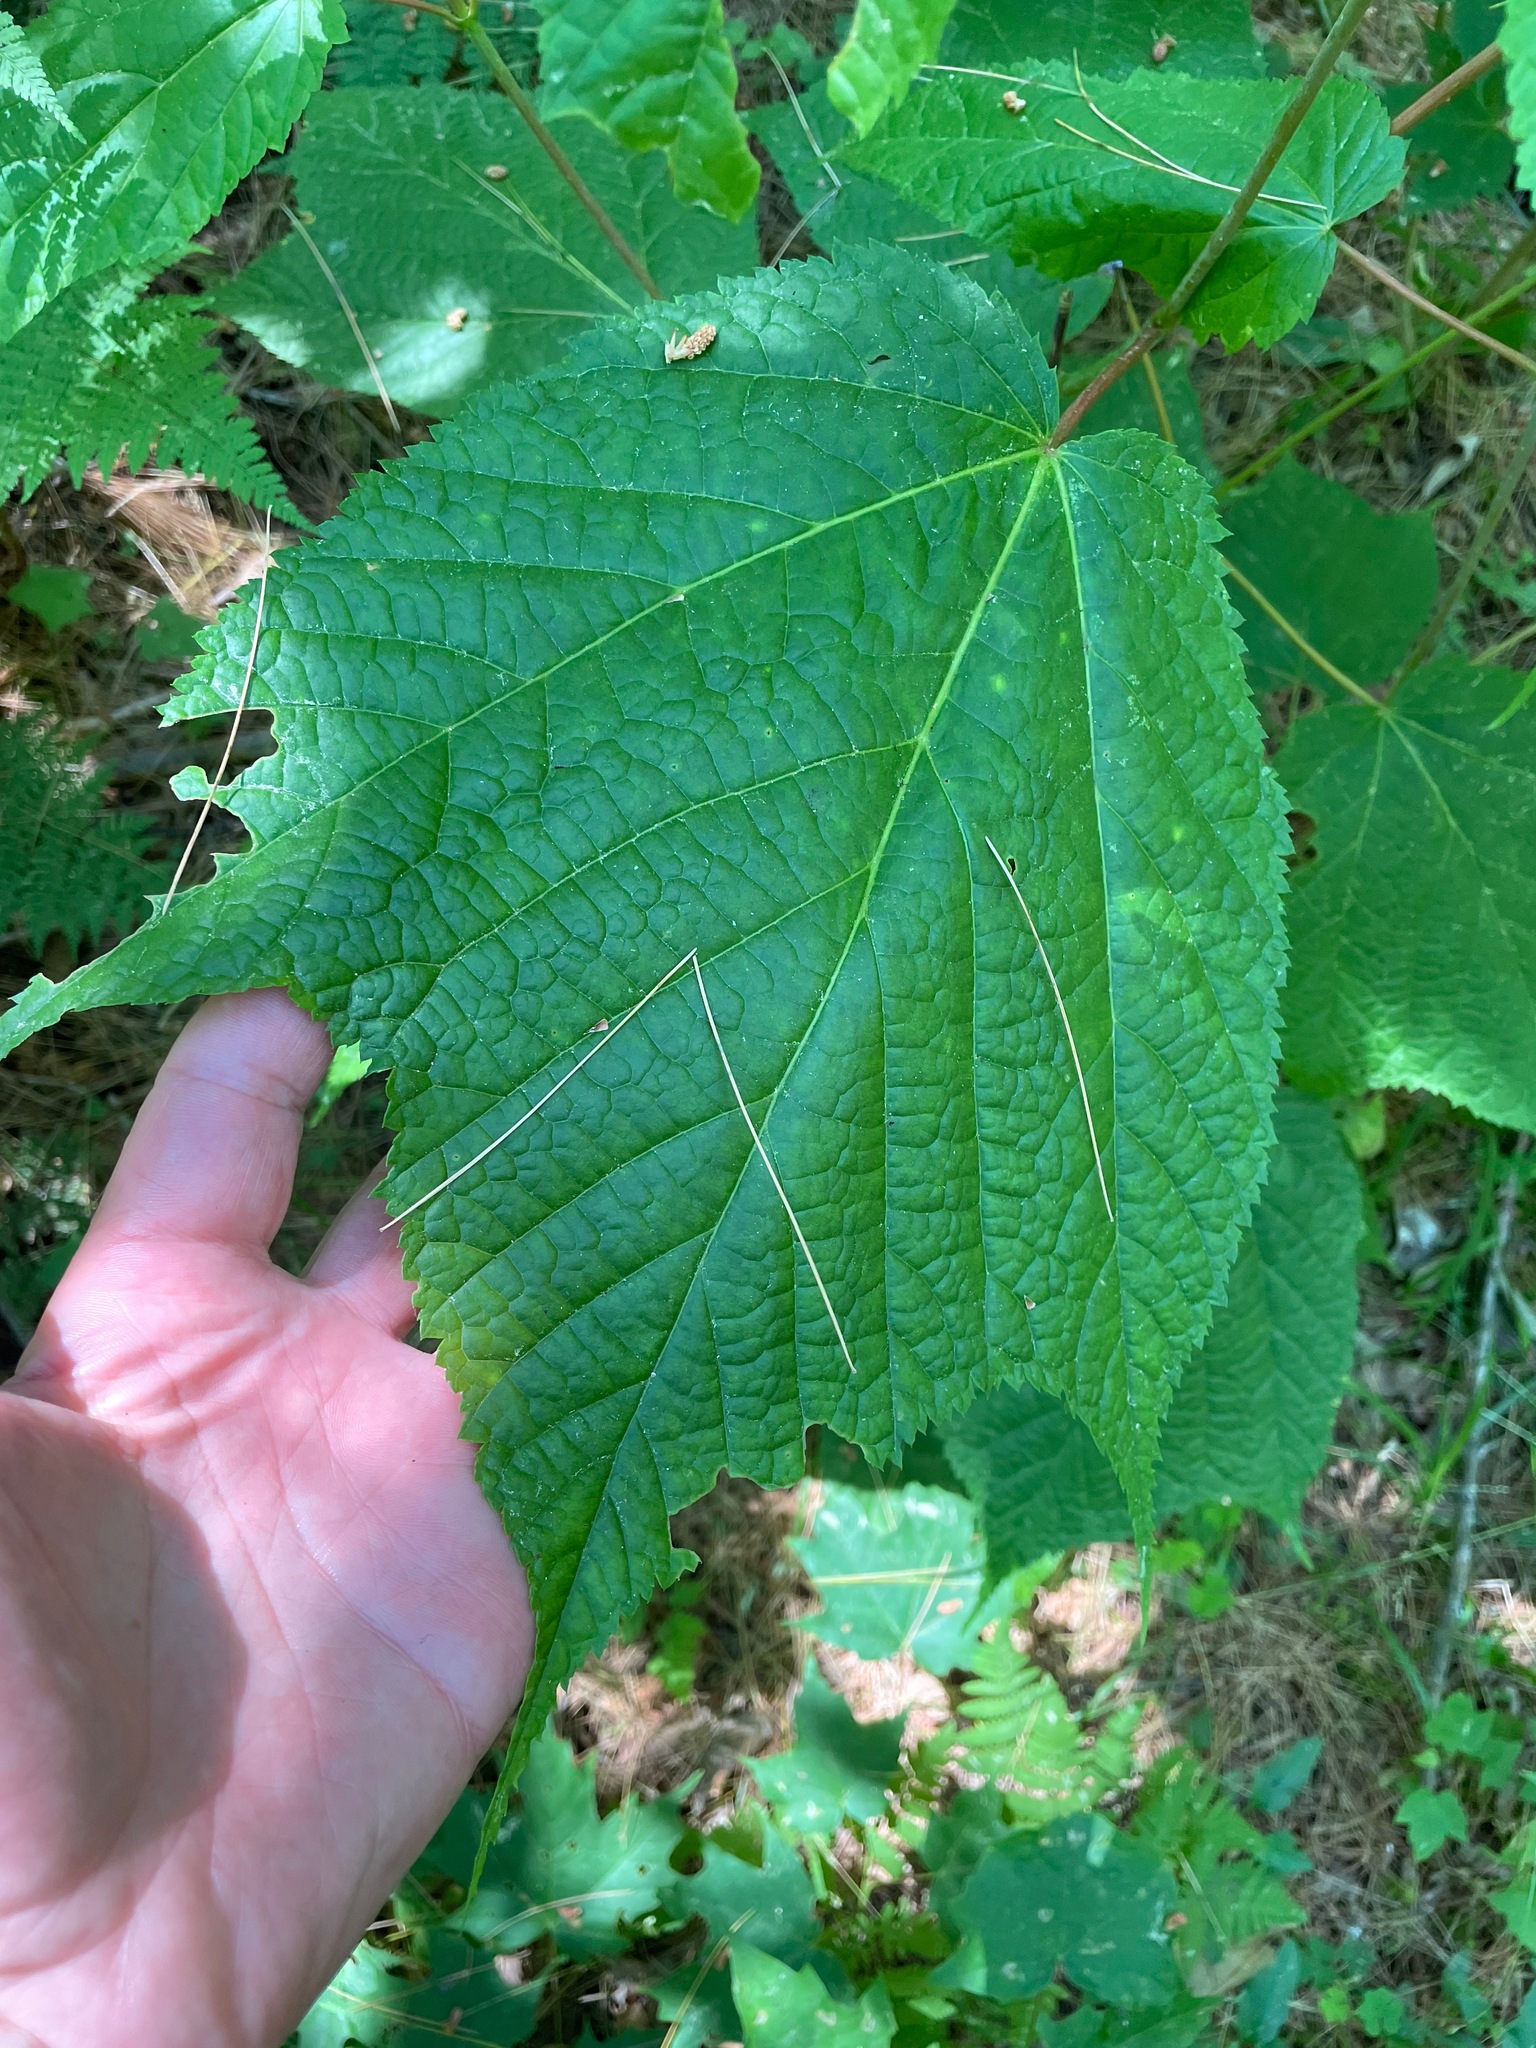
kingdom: Plantae
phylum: Tracheophyta
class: Magnoliopsida
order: Sapindales
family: Sapindaceae
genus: Acer
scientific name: Acer pensylvanicum
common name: Moosewood
